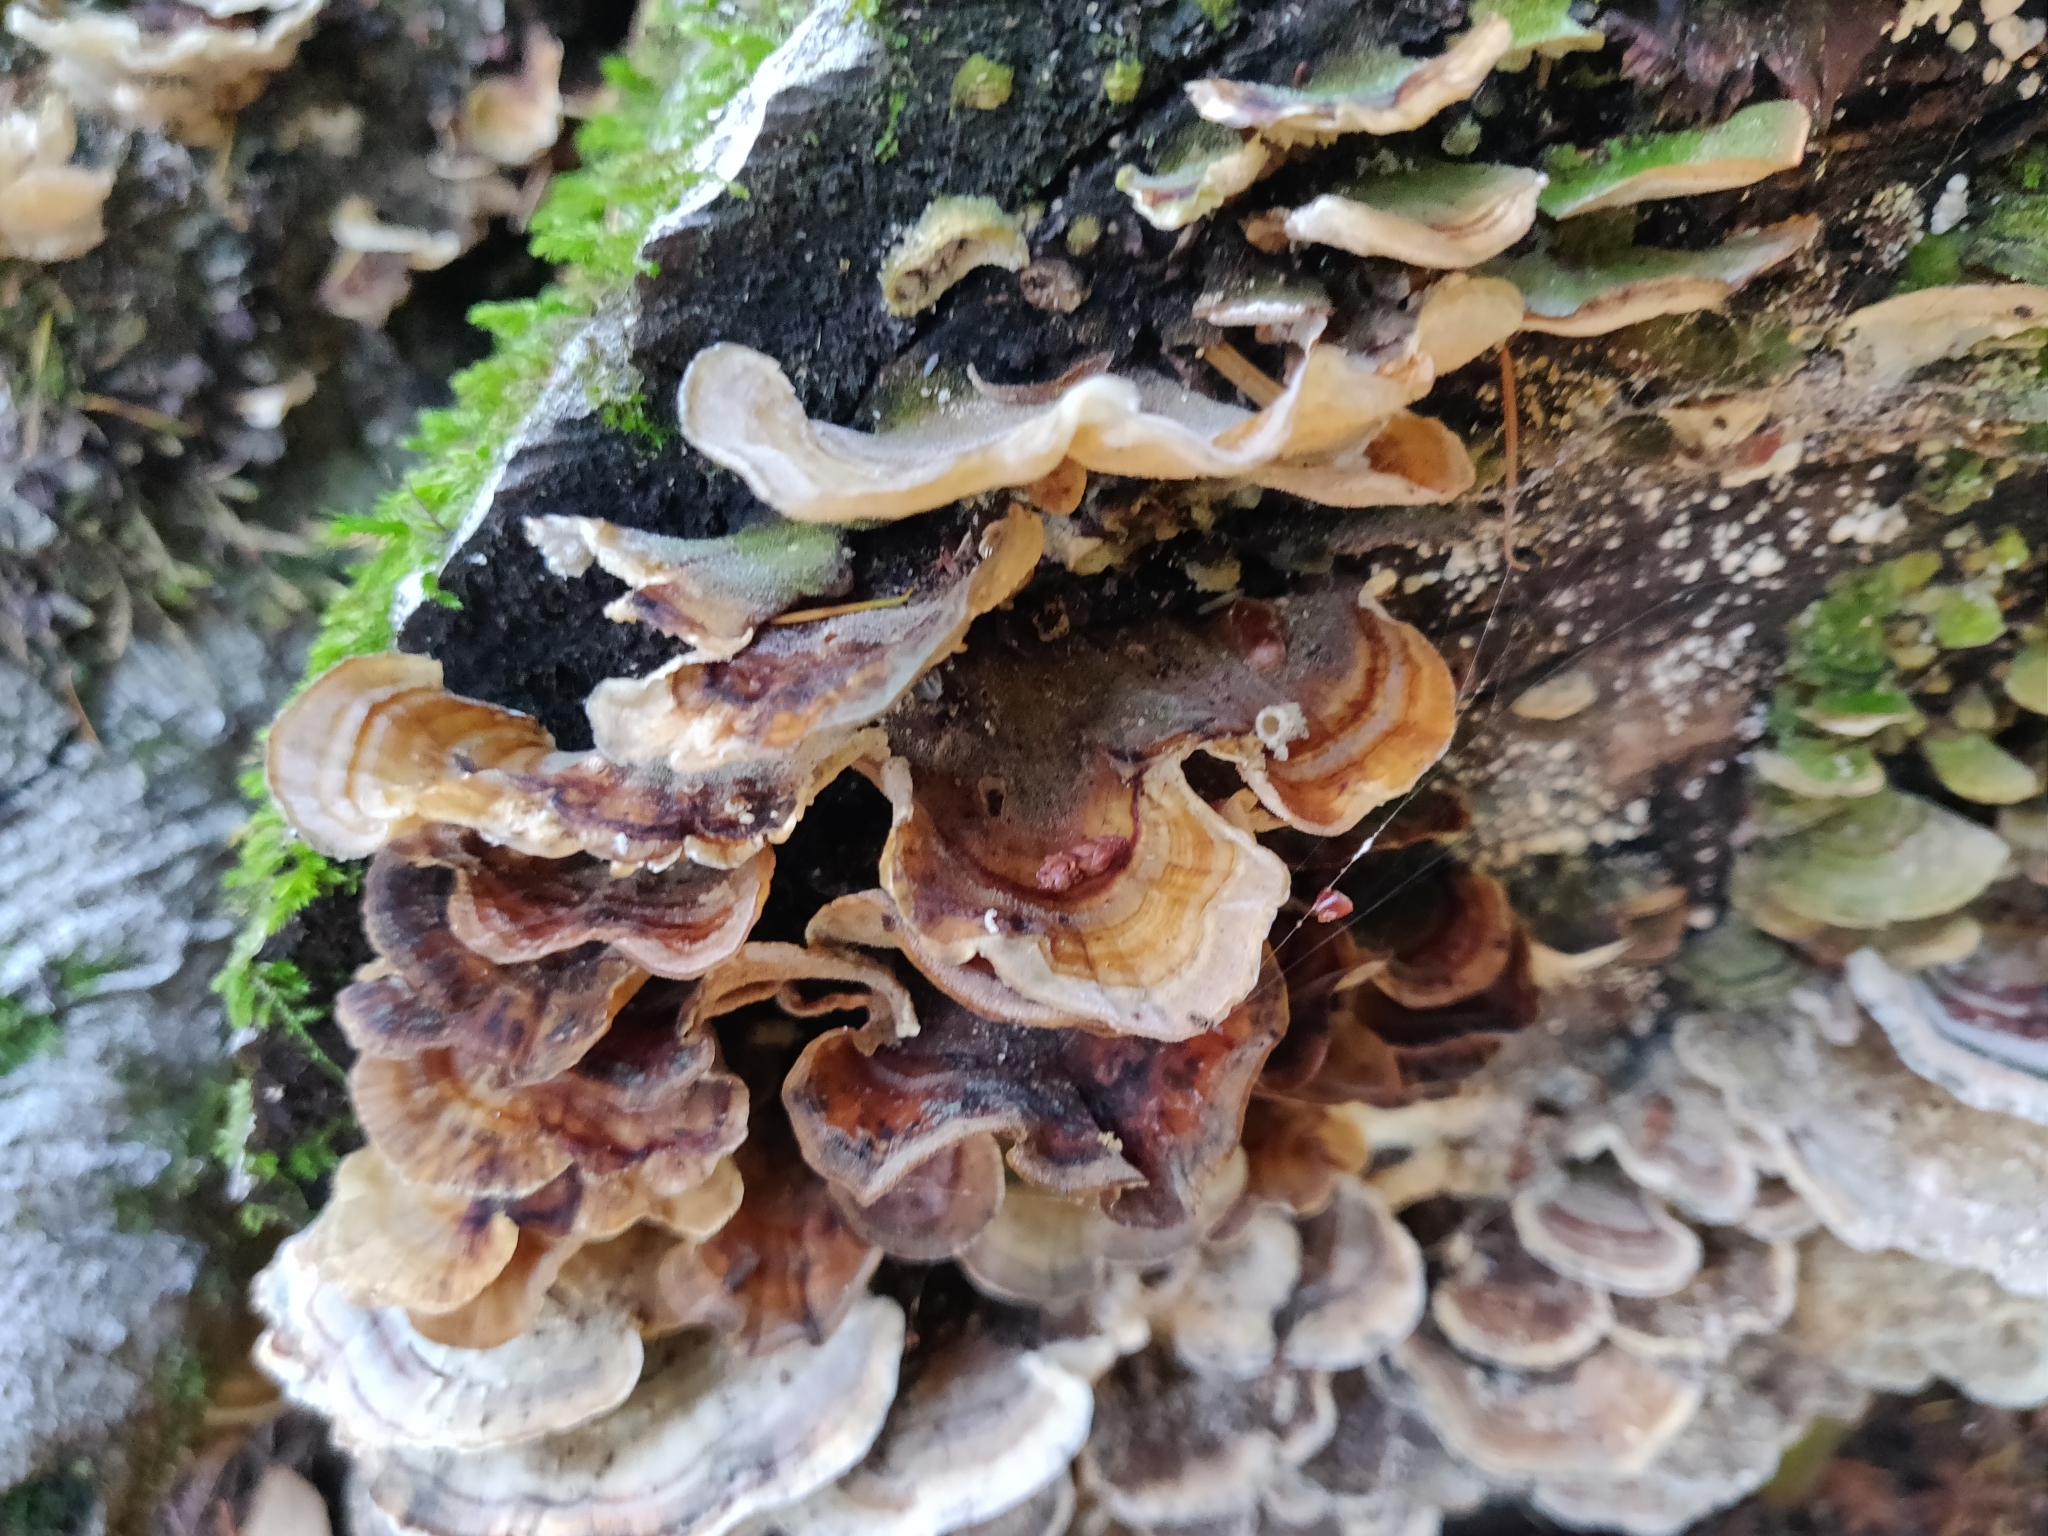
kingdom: Fungi
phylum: Basidiomycota
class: Agaricomycetes
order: Polyporales
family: Polyporaceae
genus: Trametes
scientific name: Trametes versicolor
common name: Turkeytail
